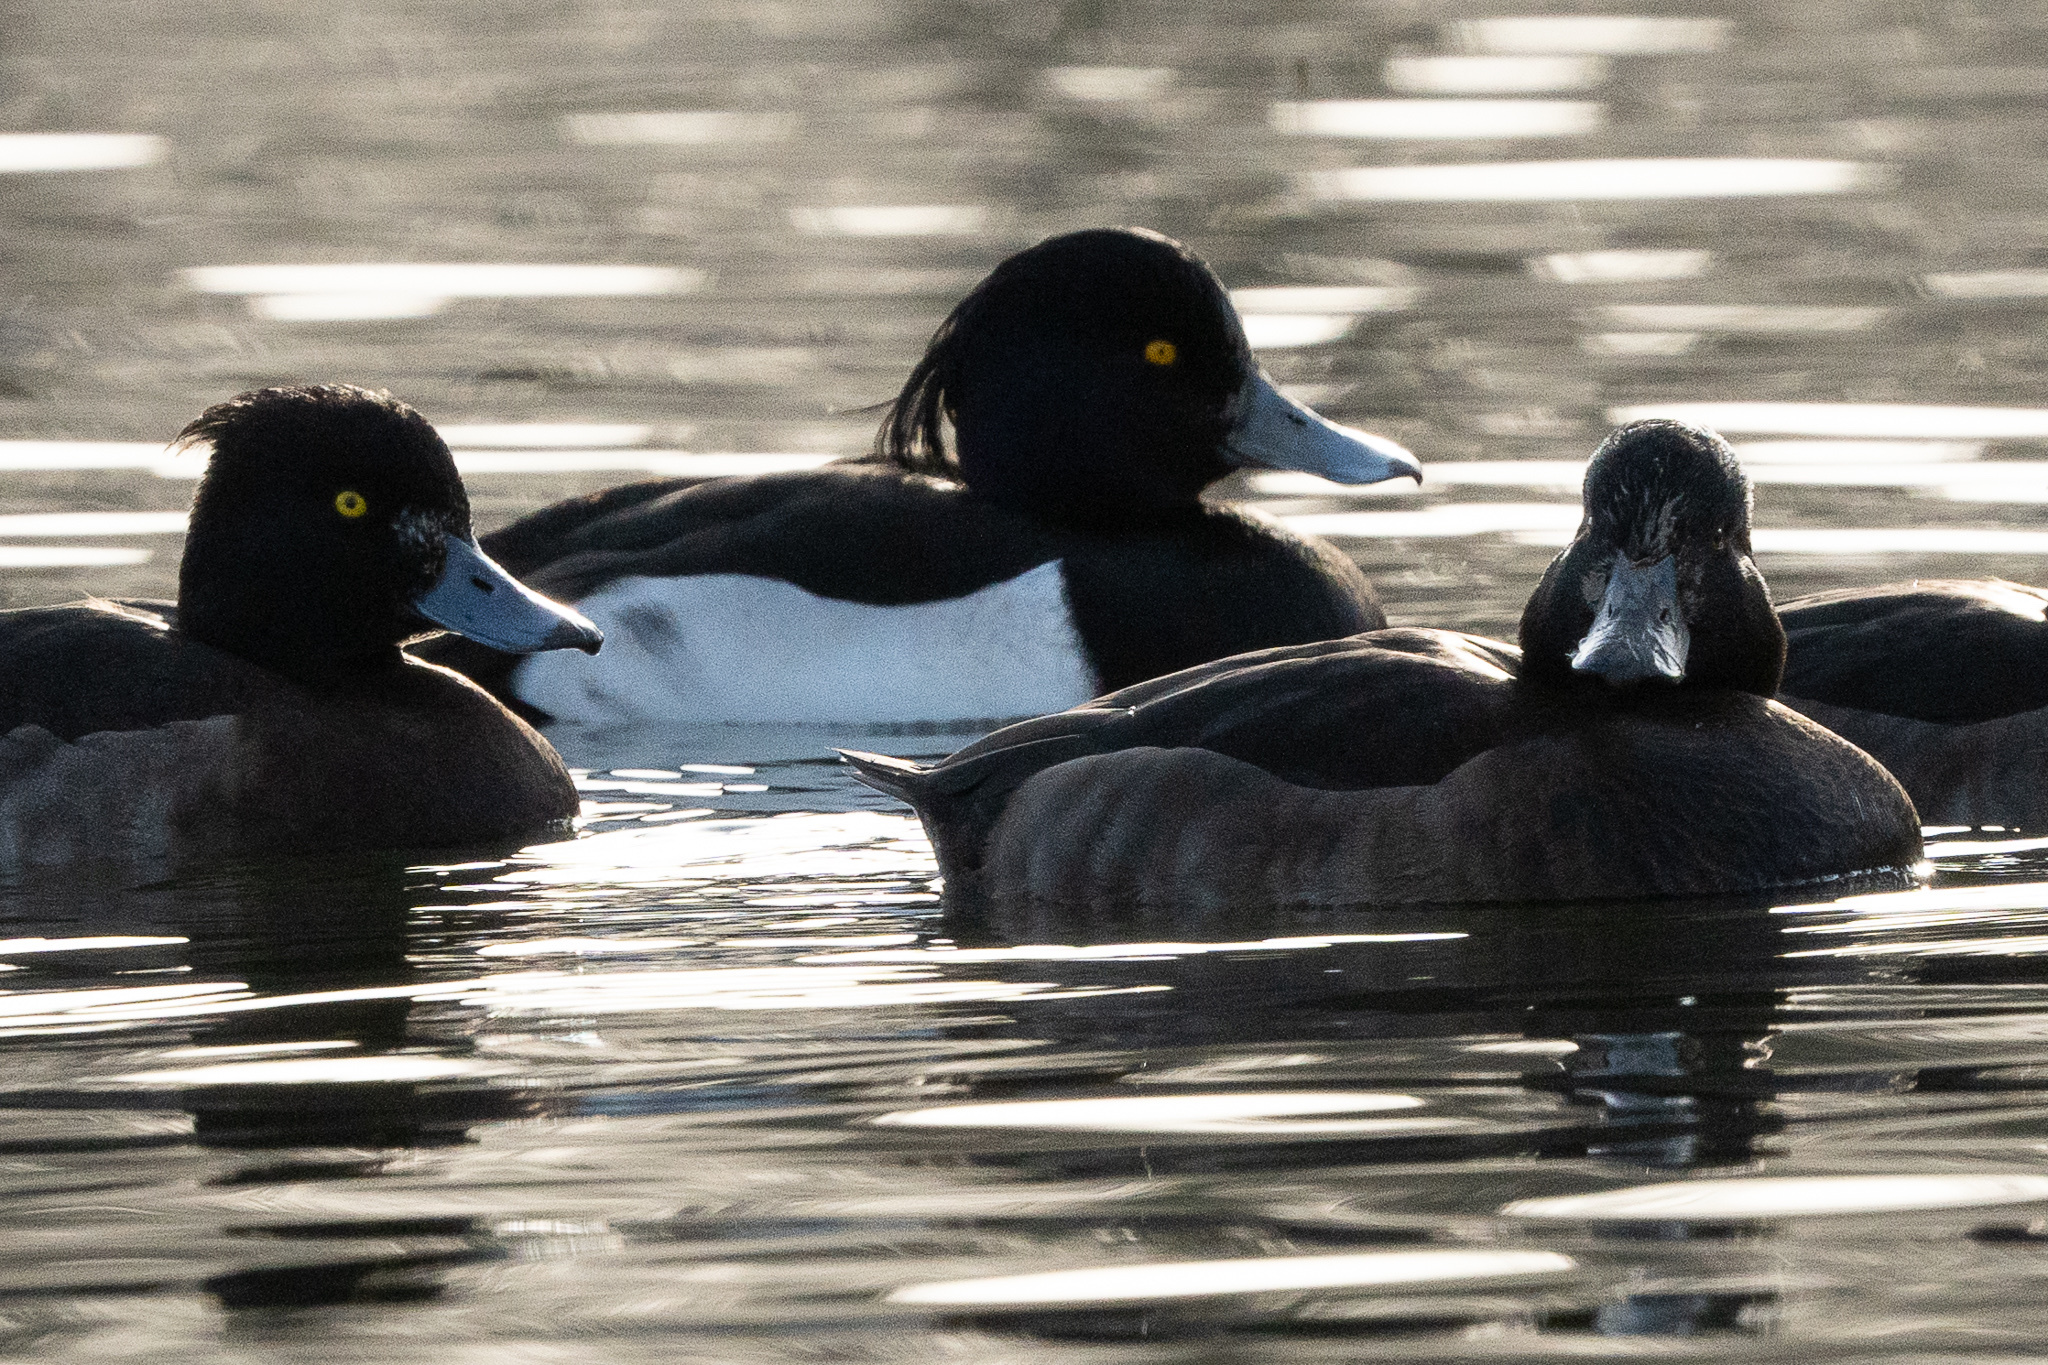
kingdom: Animalia
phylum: Chordata
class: Aves
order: Anseriformes
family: Anatidae
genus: Aythya
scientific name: Aythya fuligula
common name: Tufted duck
